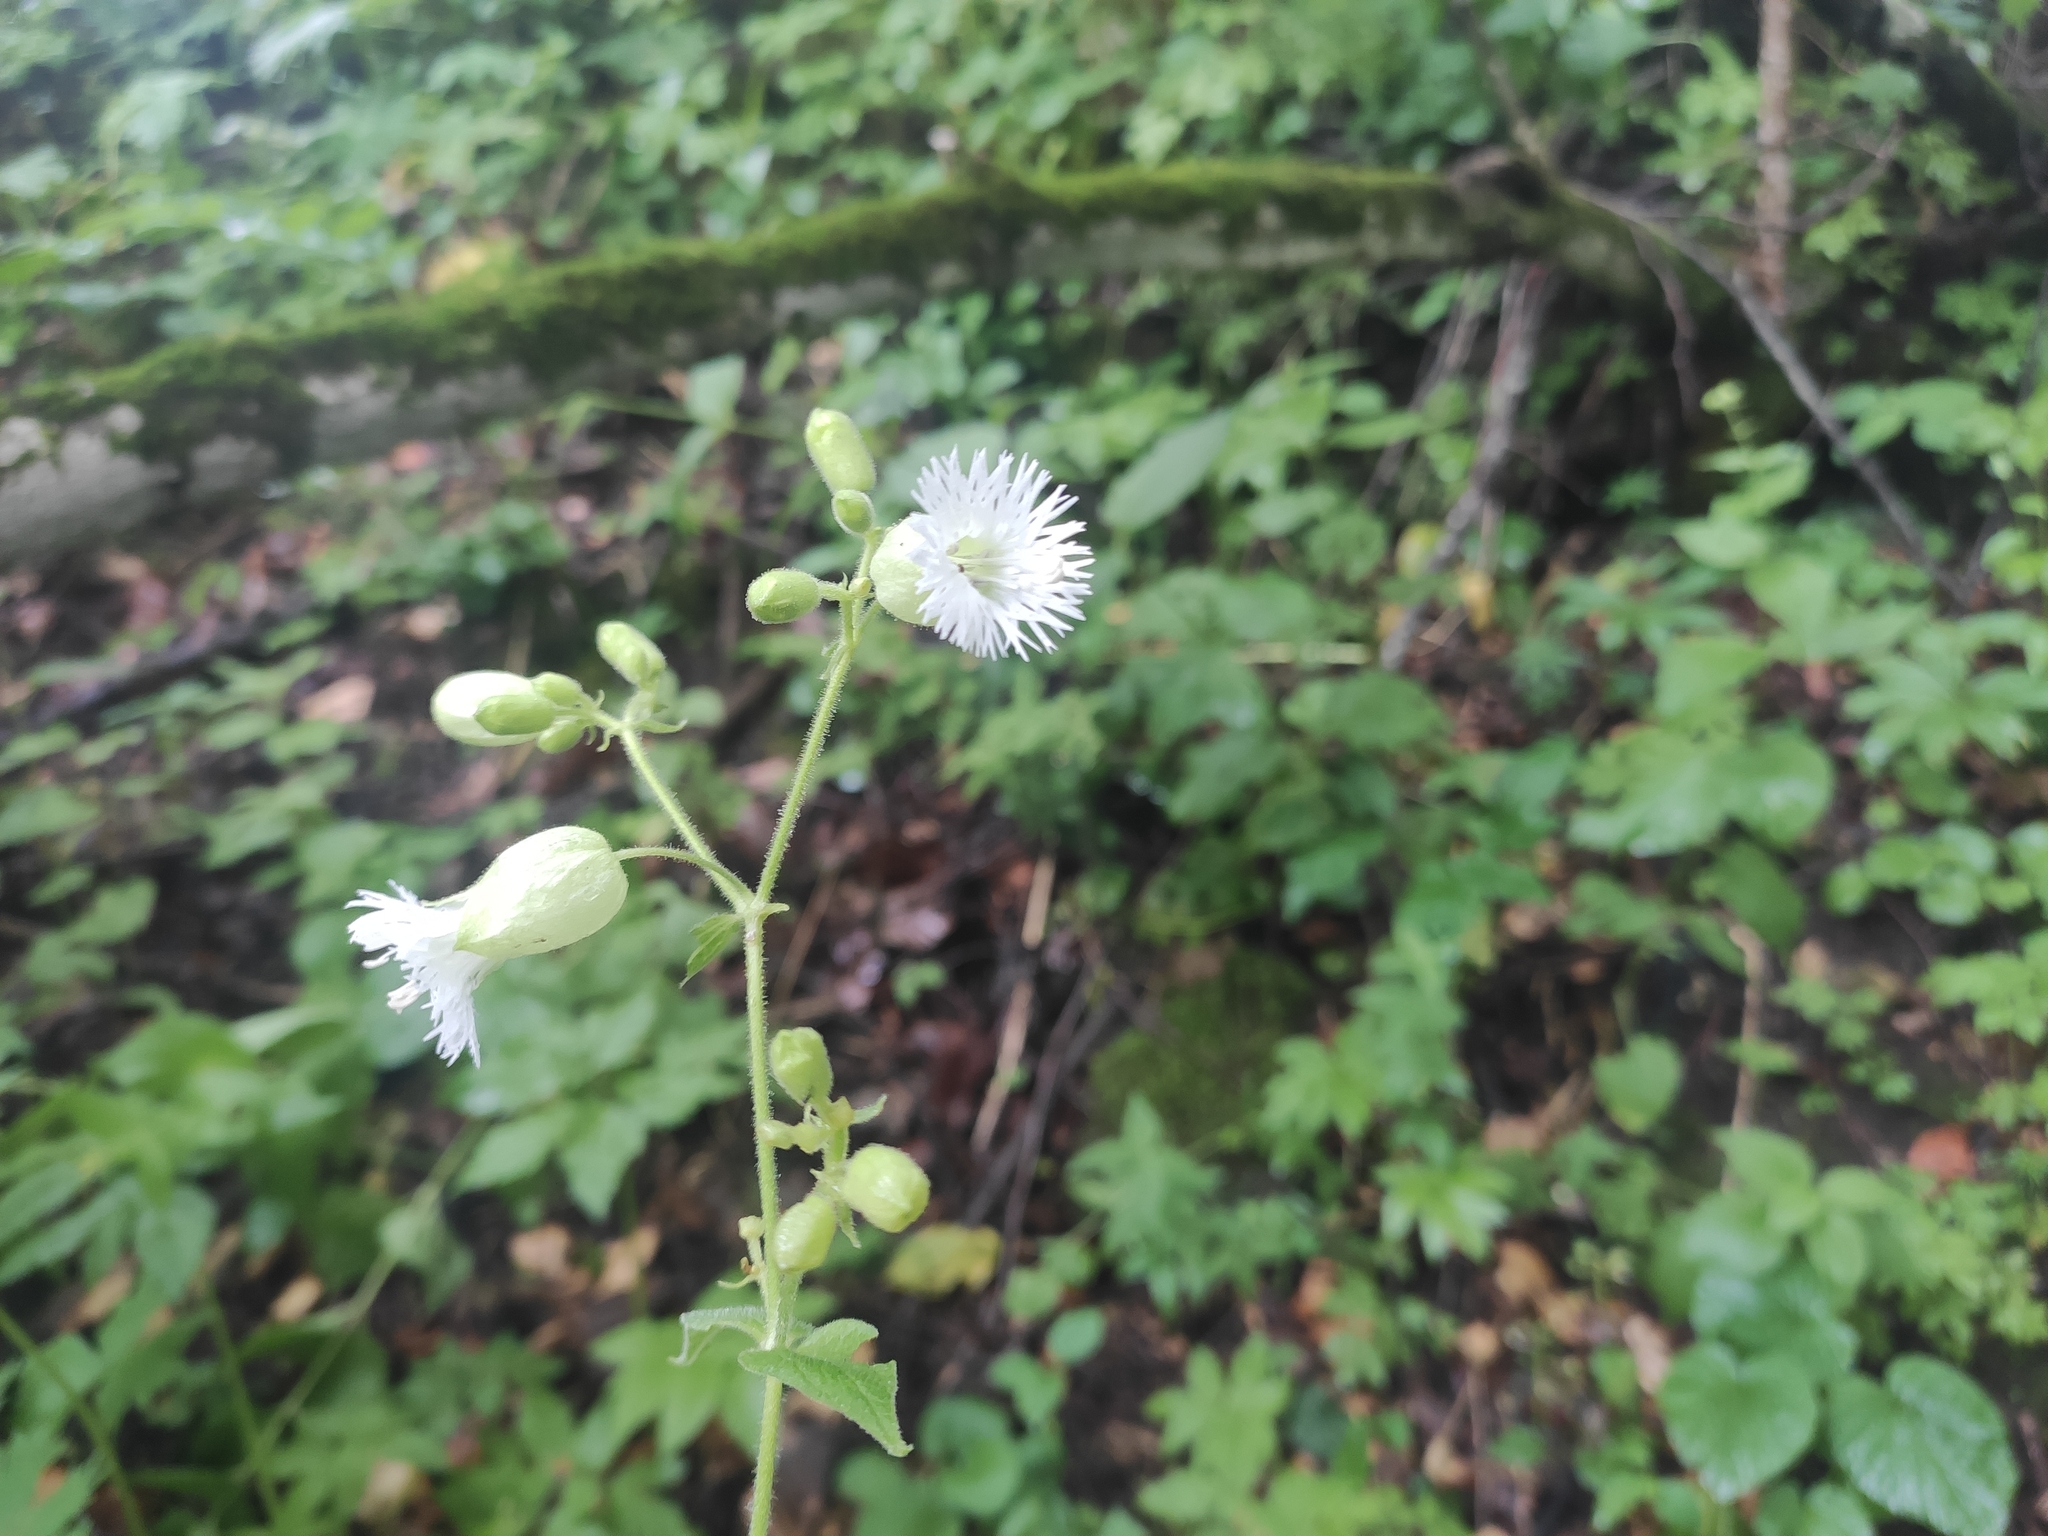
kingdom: Plantae
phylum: Tracheophyta
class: Magnoliopsida
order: Caryophyllales
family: Caryophyllaceae
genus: Silene
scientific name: Silene
